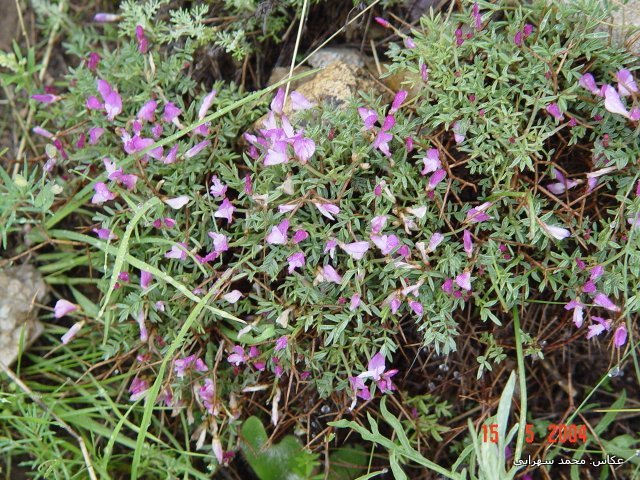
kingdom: Plantae
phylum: Tracheophyta
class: Magnoliopsida
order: Fabales
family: Fabaceae
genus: Onobrychis
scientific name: Onobrychis cornuta
